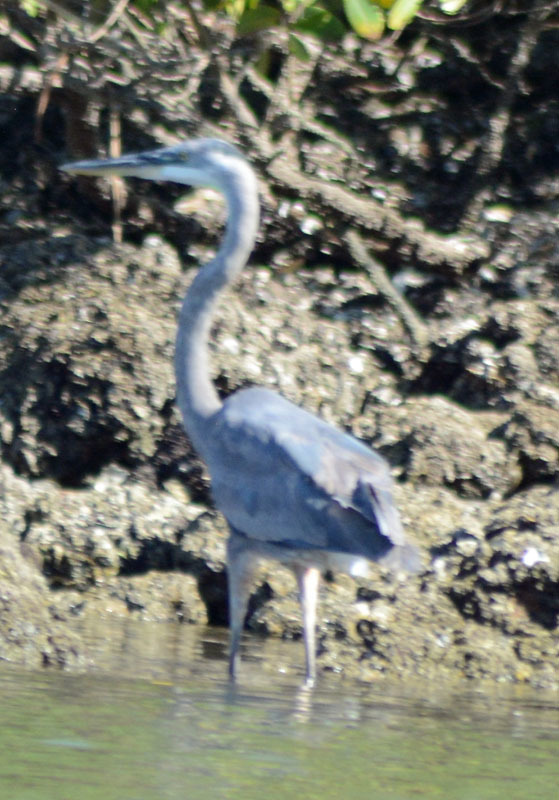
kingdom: Animalia
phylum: Chordata
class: Aves
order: Pelecaniformes
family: Ardeidae
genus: Ardea
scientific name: Ardea herodias
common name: Great blue heron
